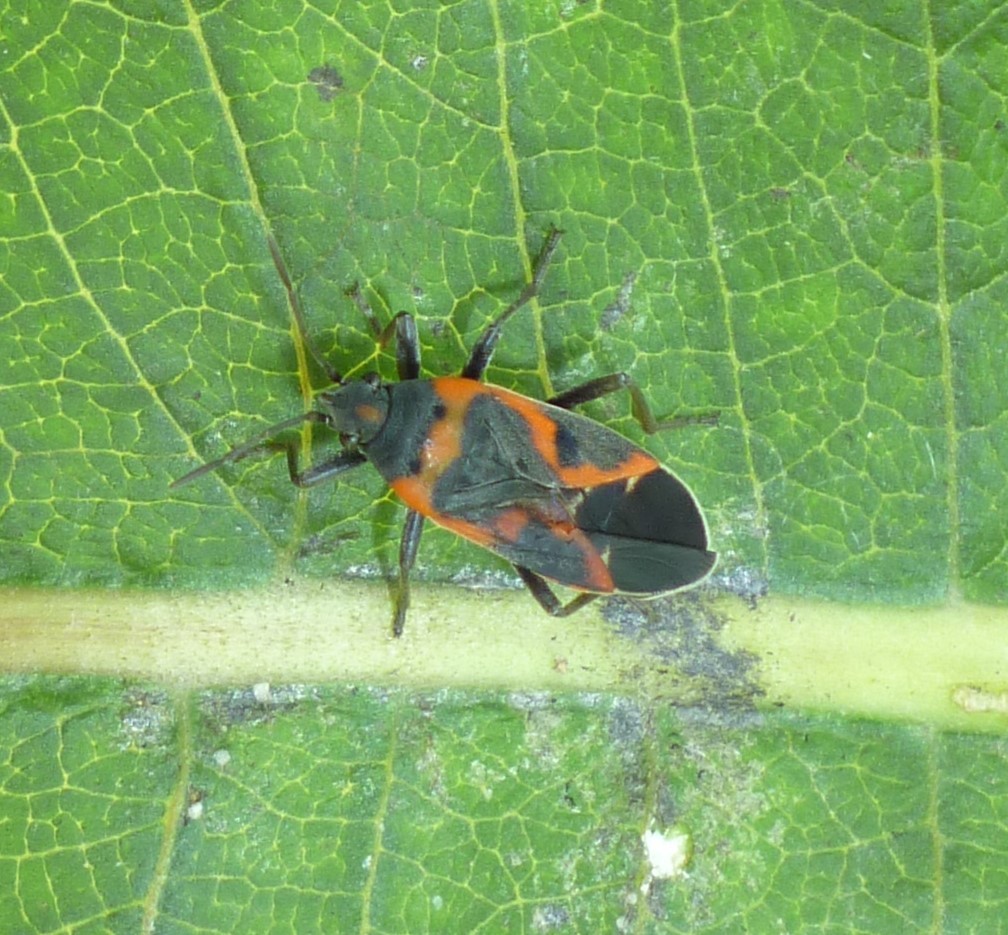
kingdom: Animalia
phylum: Arthropoda
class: Insecta
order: Hemiptera
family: Lygaeidae
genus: Lygaeus
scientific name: Lygaeus kalmii
